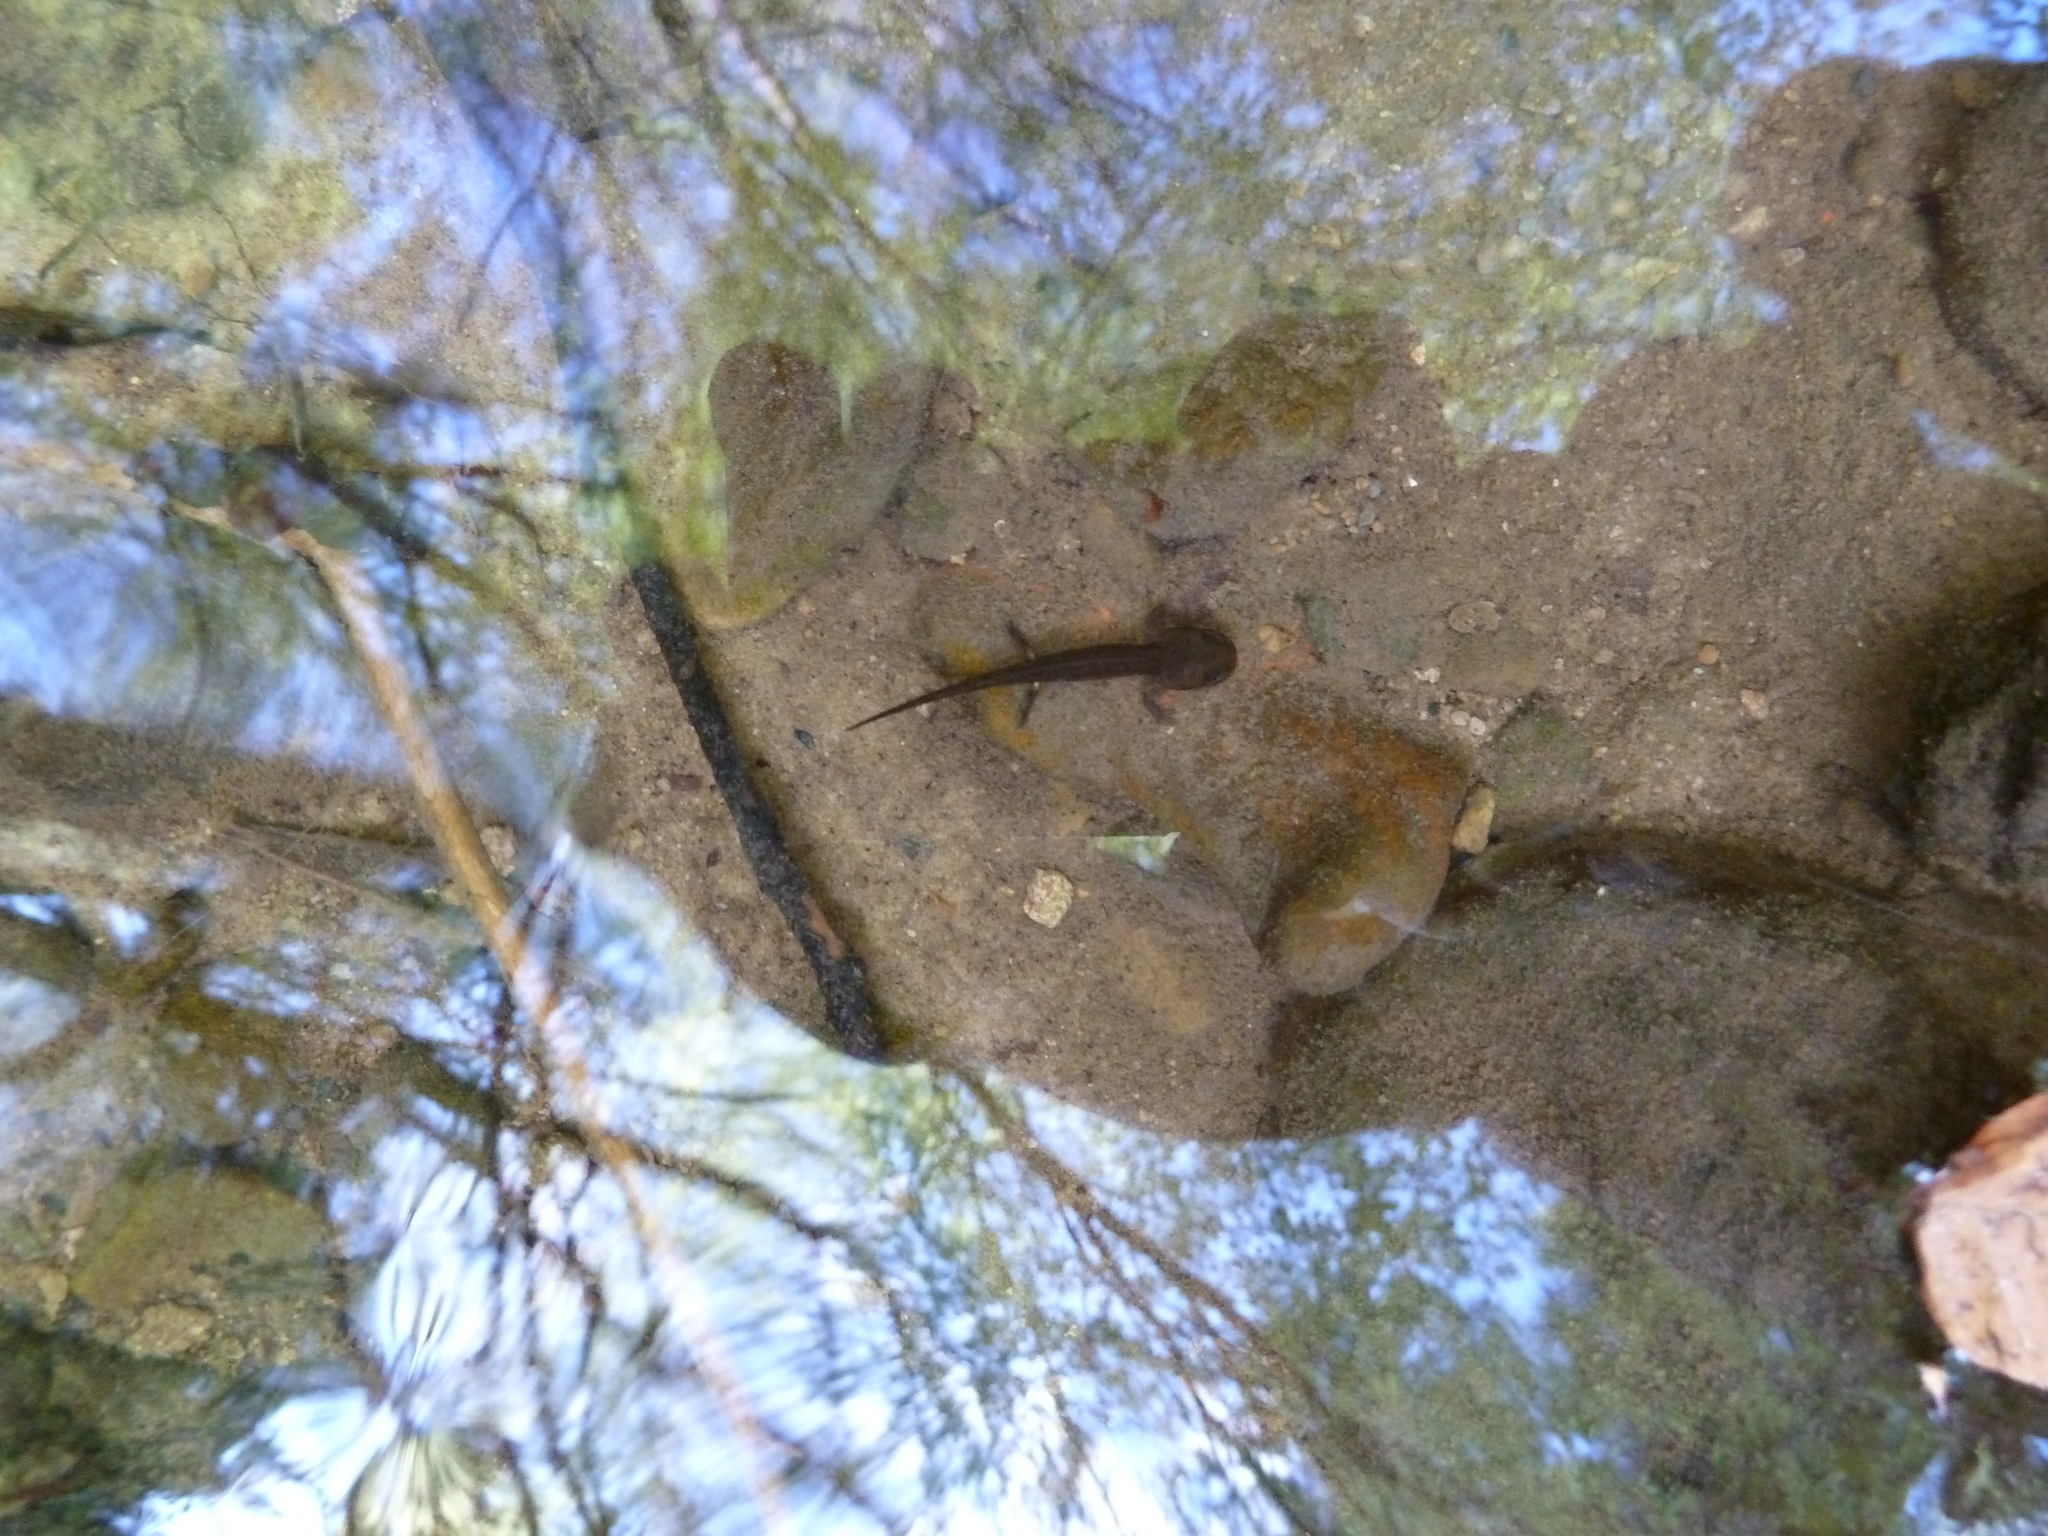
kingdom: Animalia
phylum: Chordata
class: Amphibia
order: Caudata
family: Salamandridae
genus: Salamandra
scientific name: Salamandra salamandra
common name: Fire salamander
